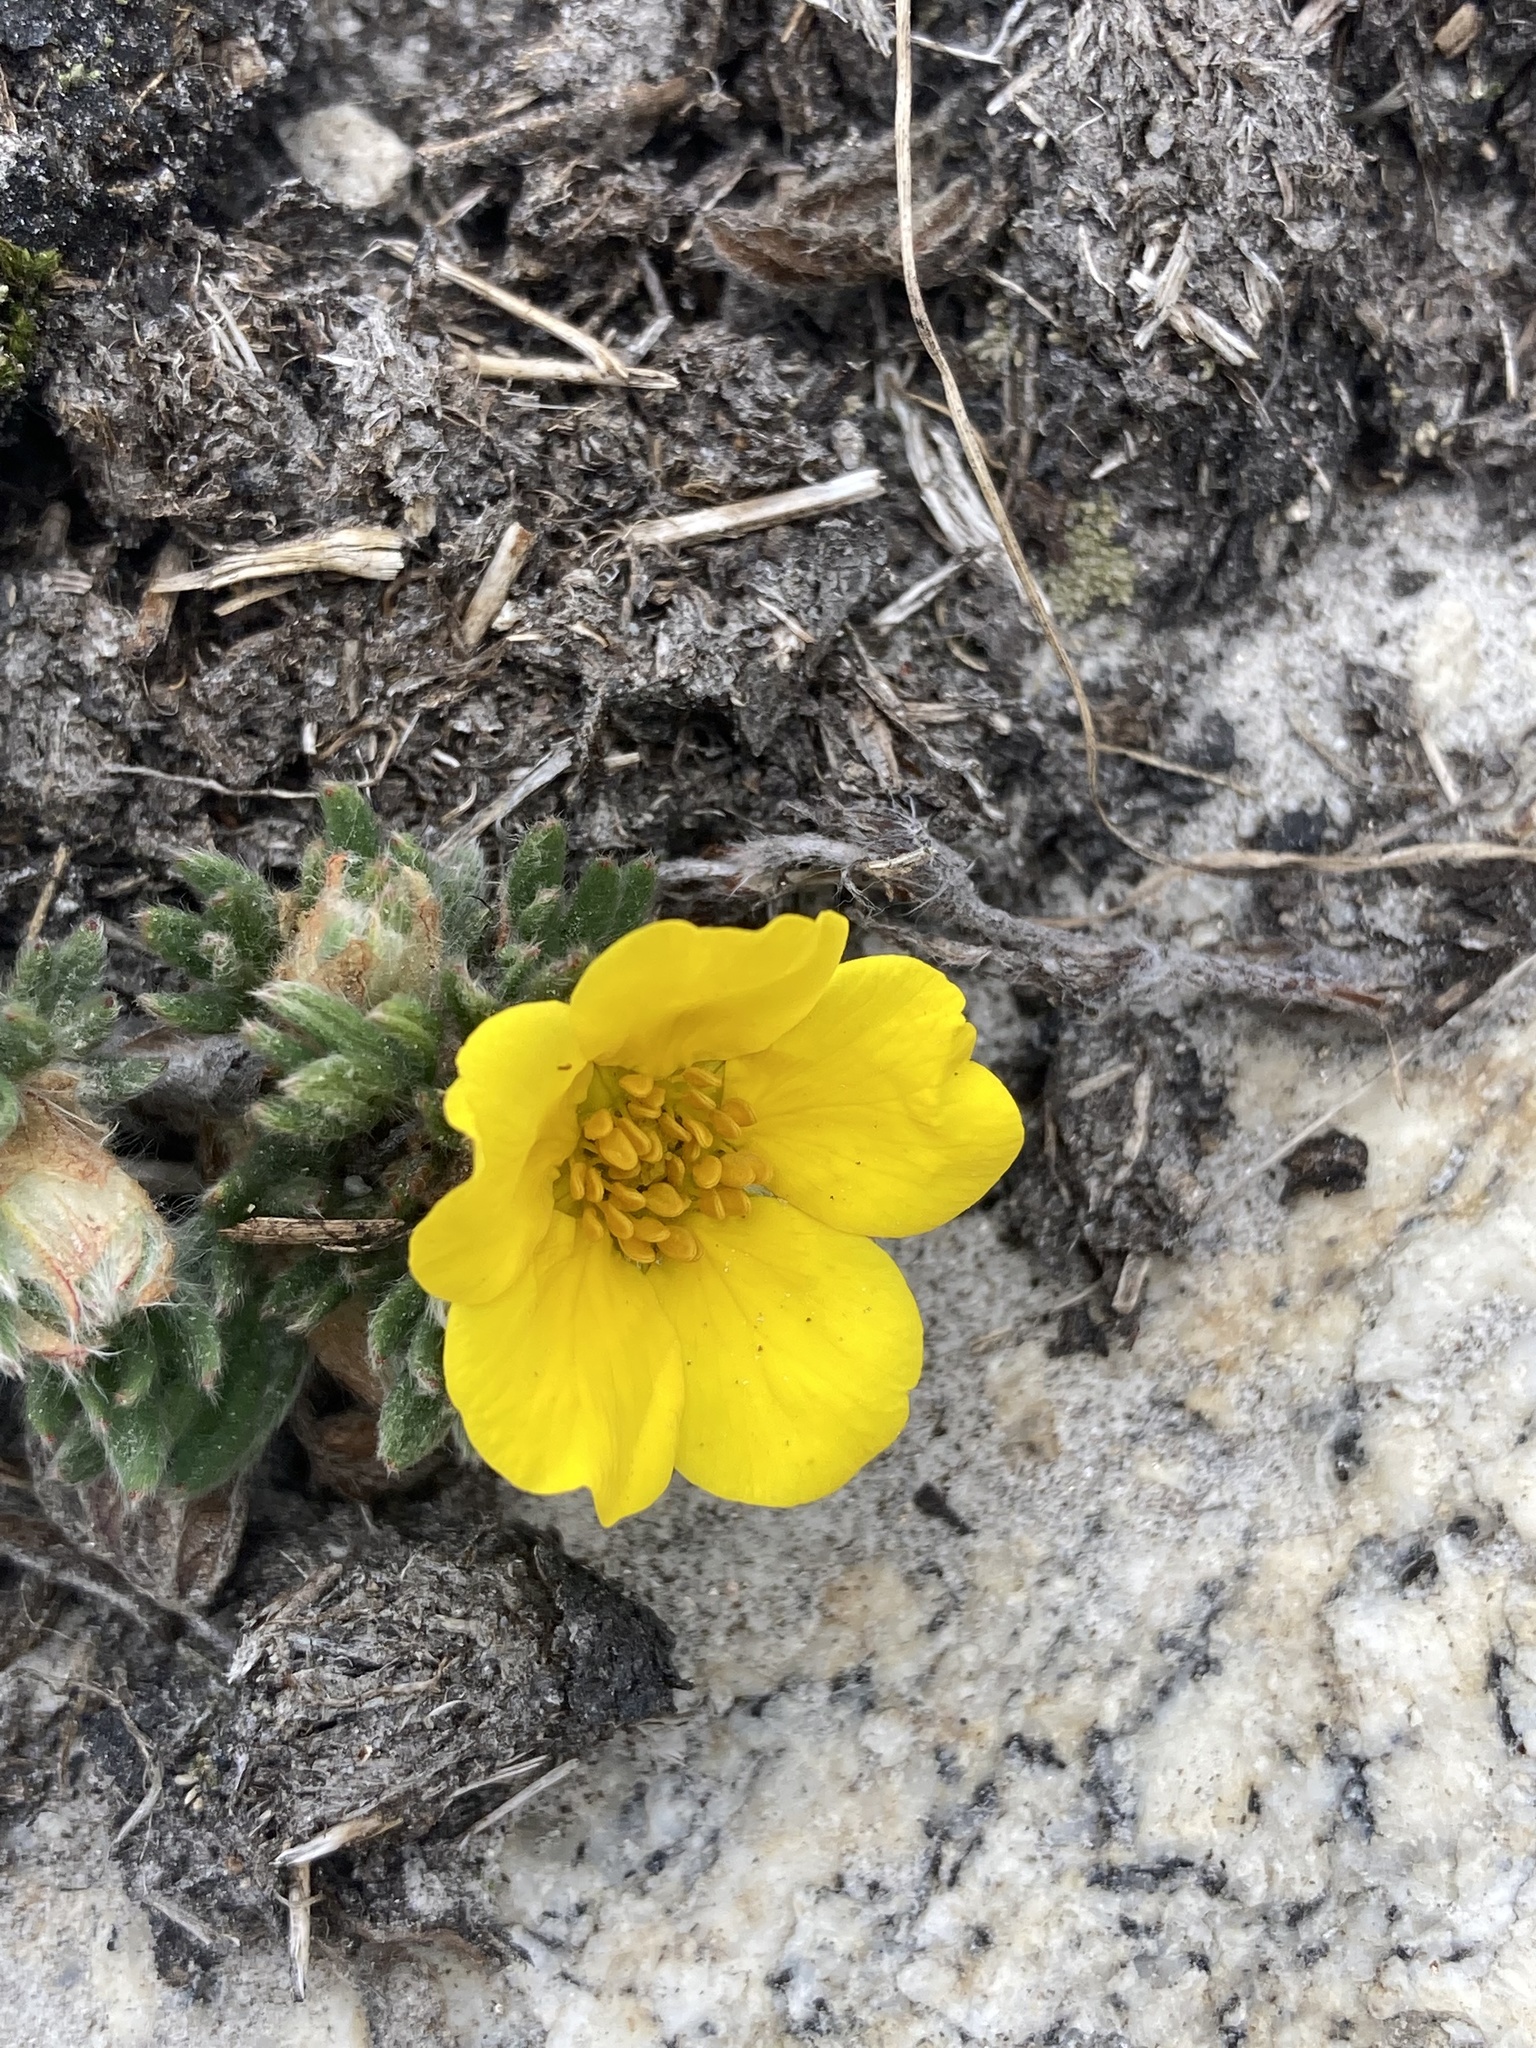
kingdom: Plantae
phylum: Tracheophyta
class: Magnoliopsida
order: Rosales
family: Rosaceae
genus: Dasiphora
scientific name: Dasiphora arbuscula
